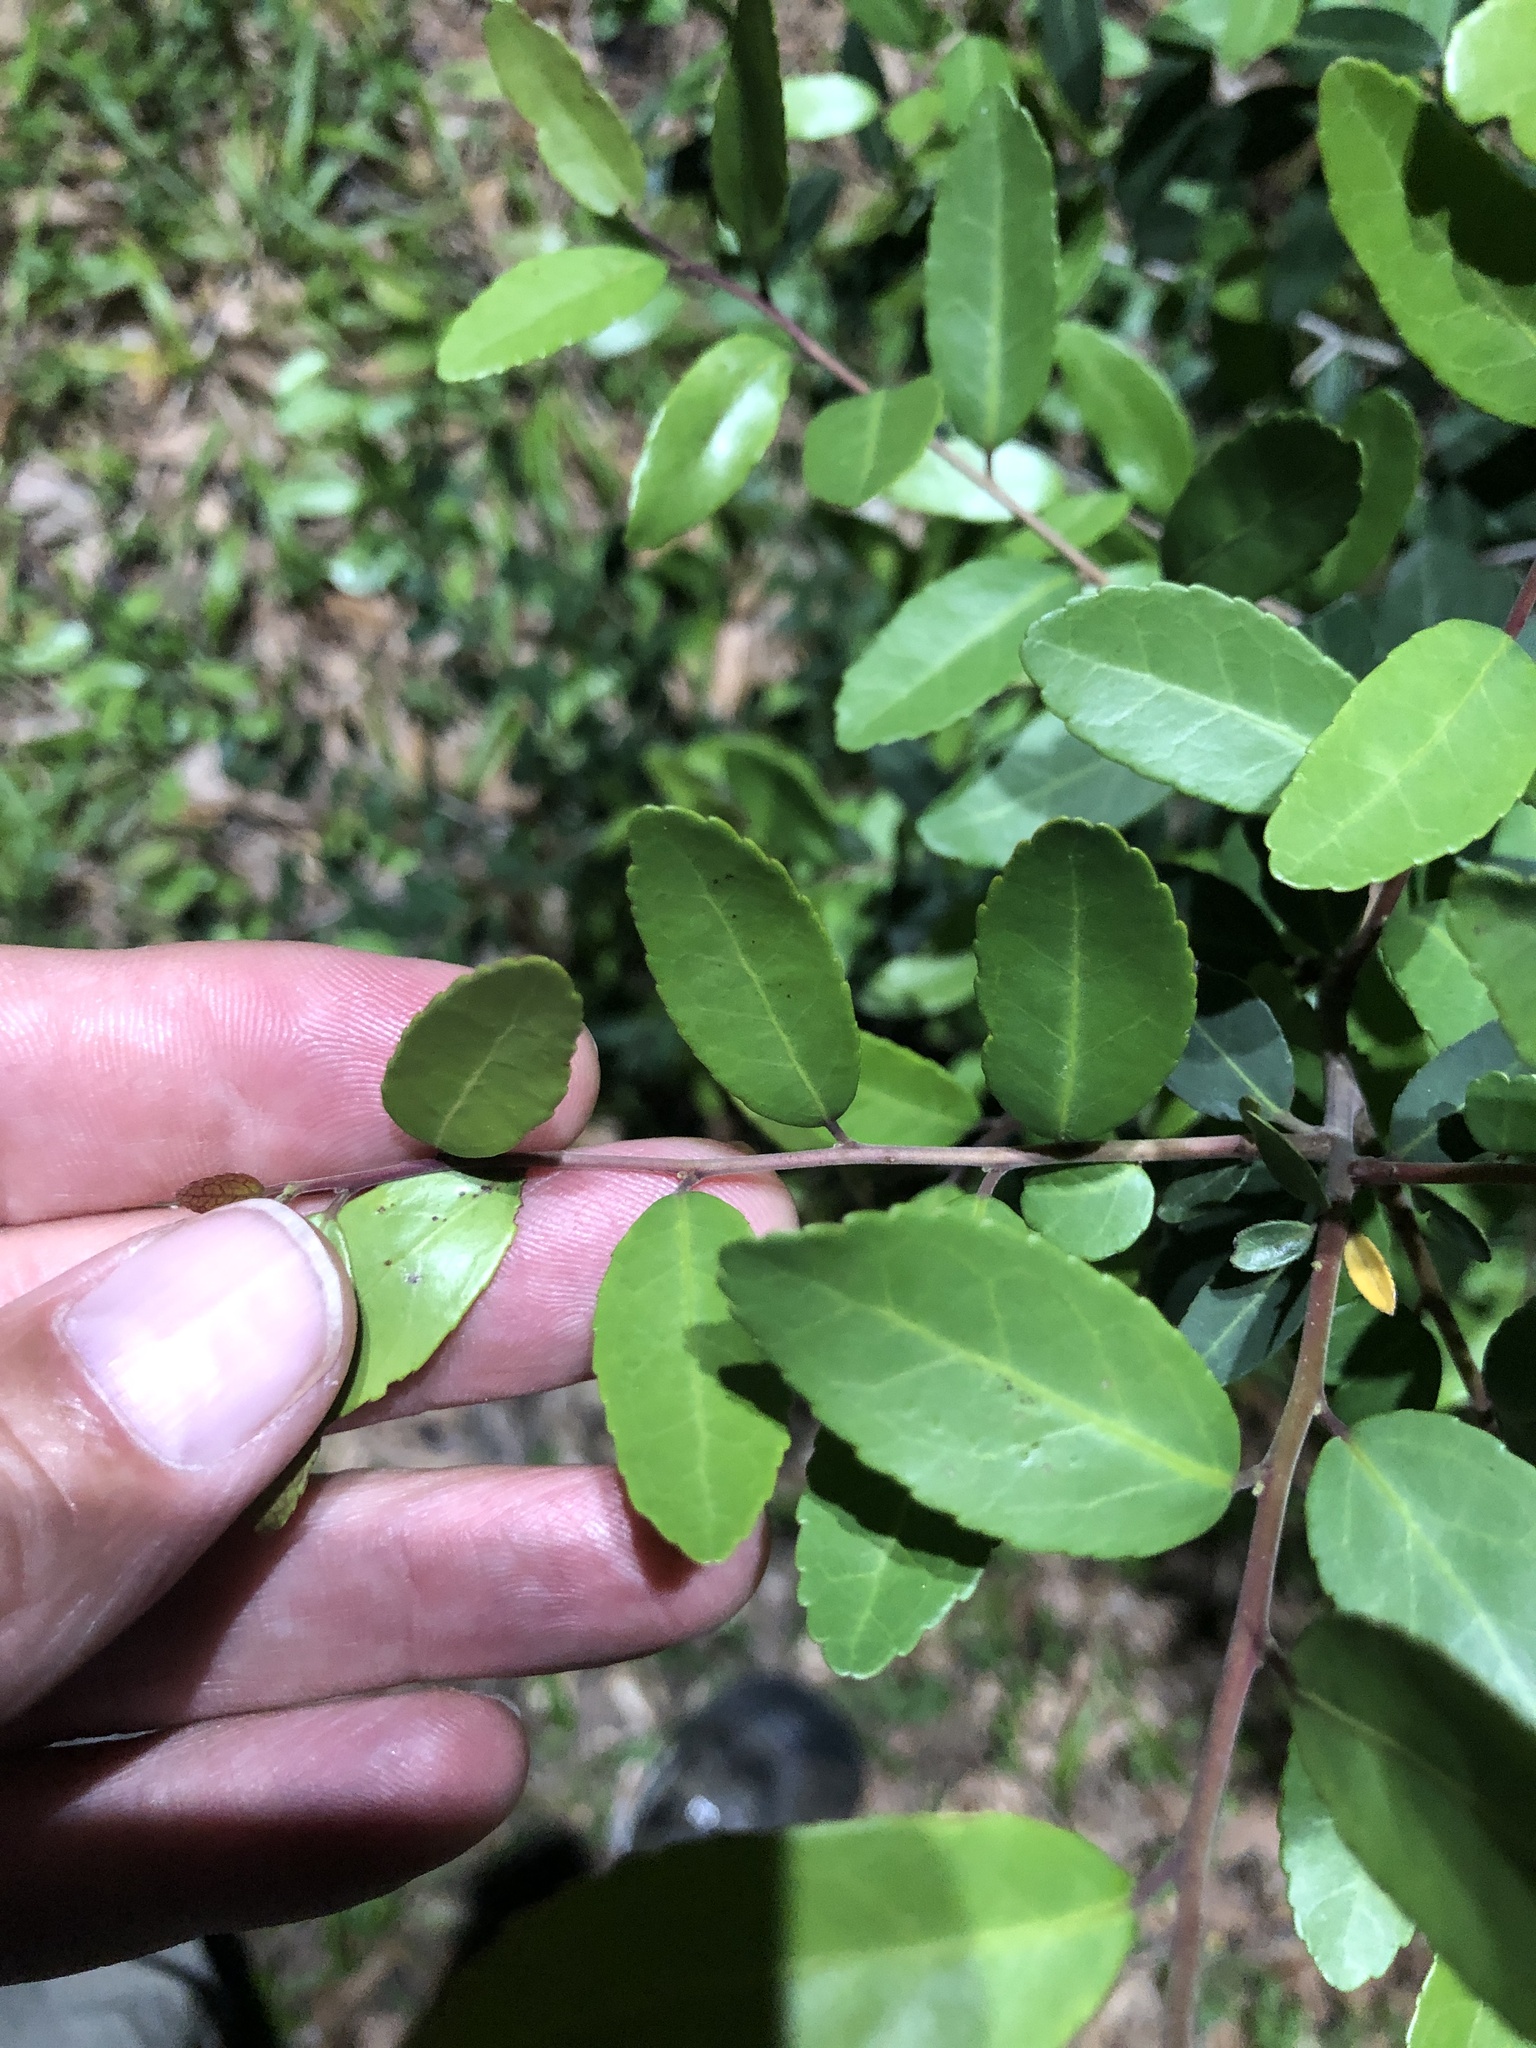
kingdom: Plantae
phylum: Tracheophyta
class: Magnoliopsida
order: Aquifoliales
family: Aquifoliaceae
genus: Ilex
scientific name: Ilex vomitoria
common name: Yaupon holly
